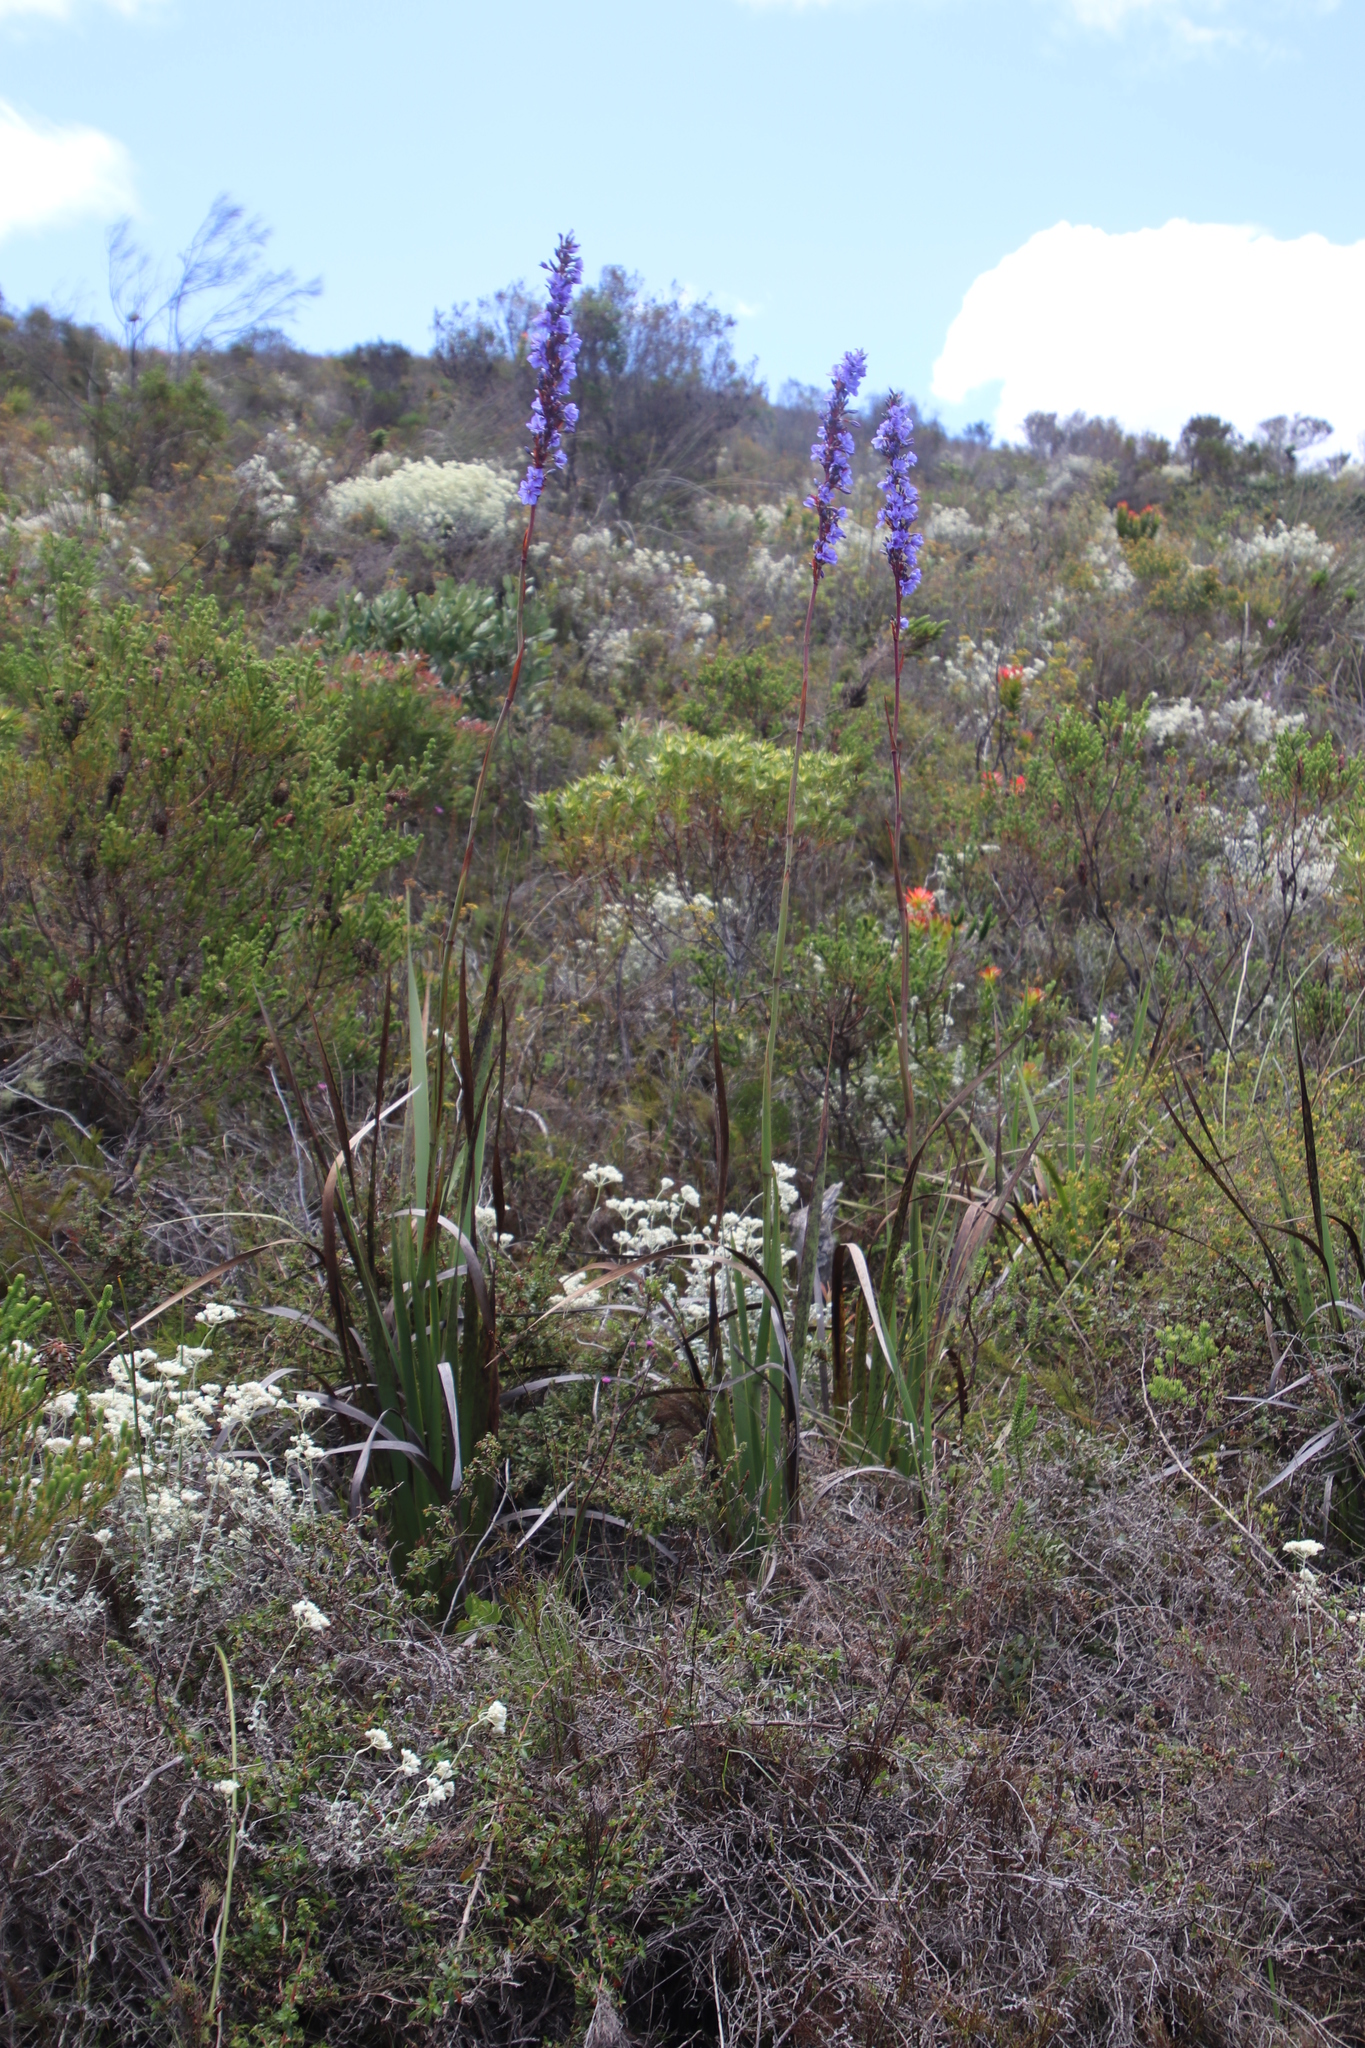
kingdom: Plantae
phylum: Tracheophyta
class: Liliopsida
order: Asparagales
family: Iridaceae
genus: Aristea
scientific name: Aristea capitata
